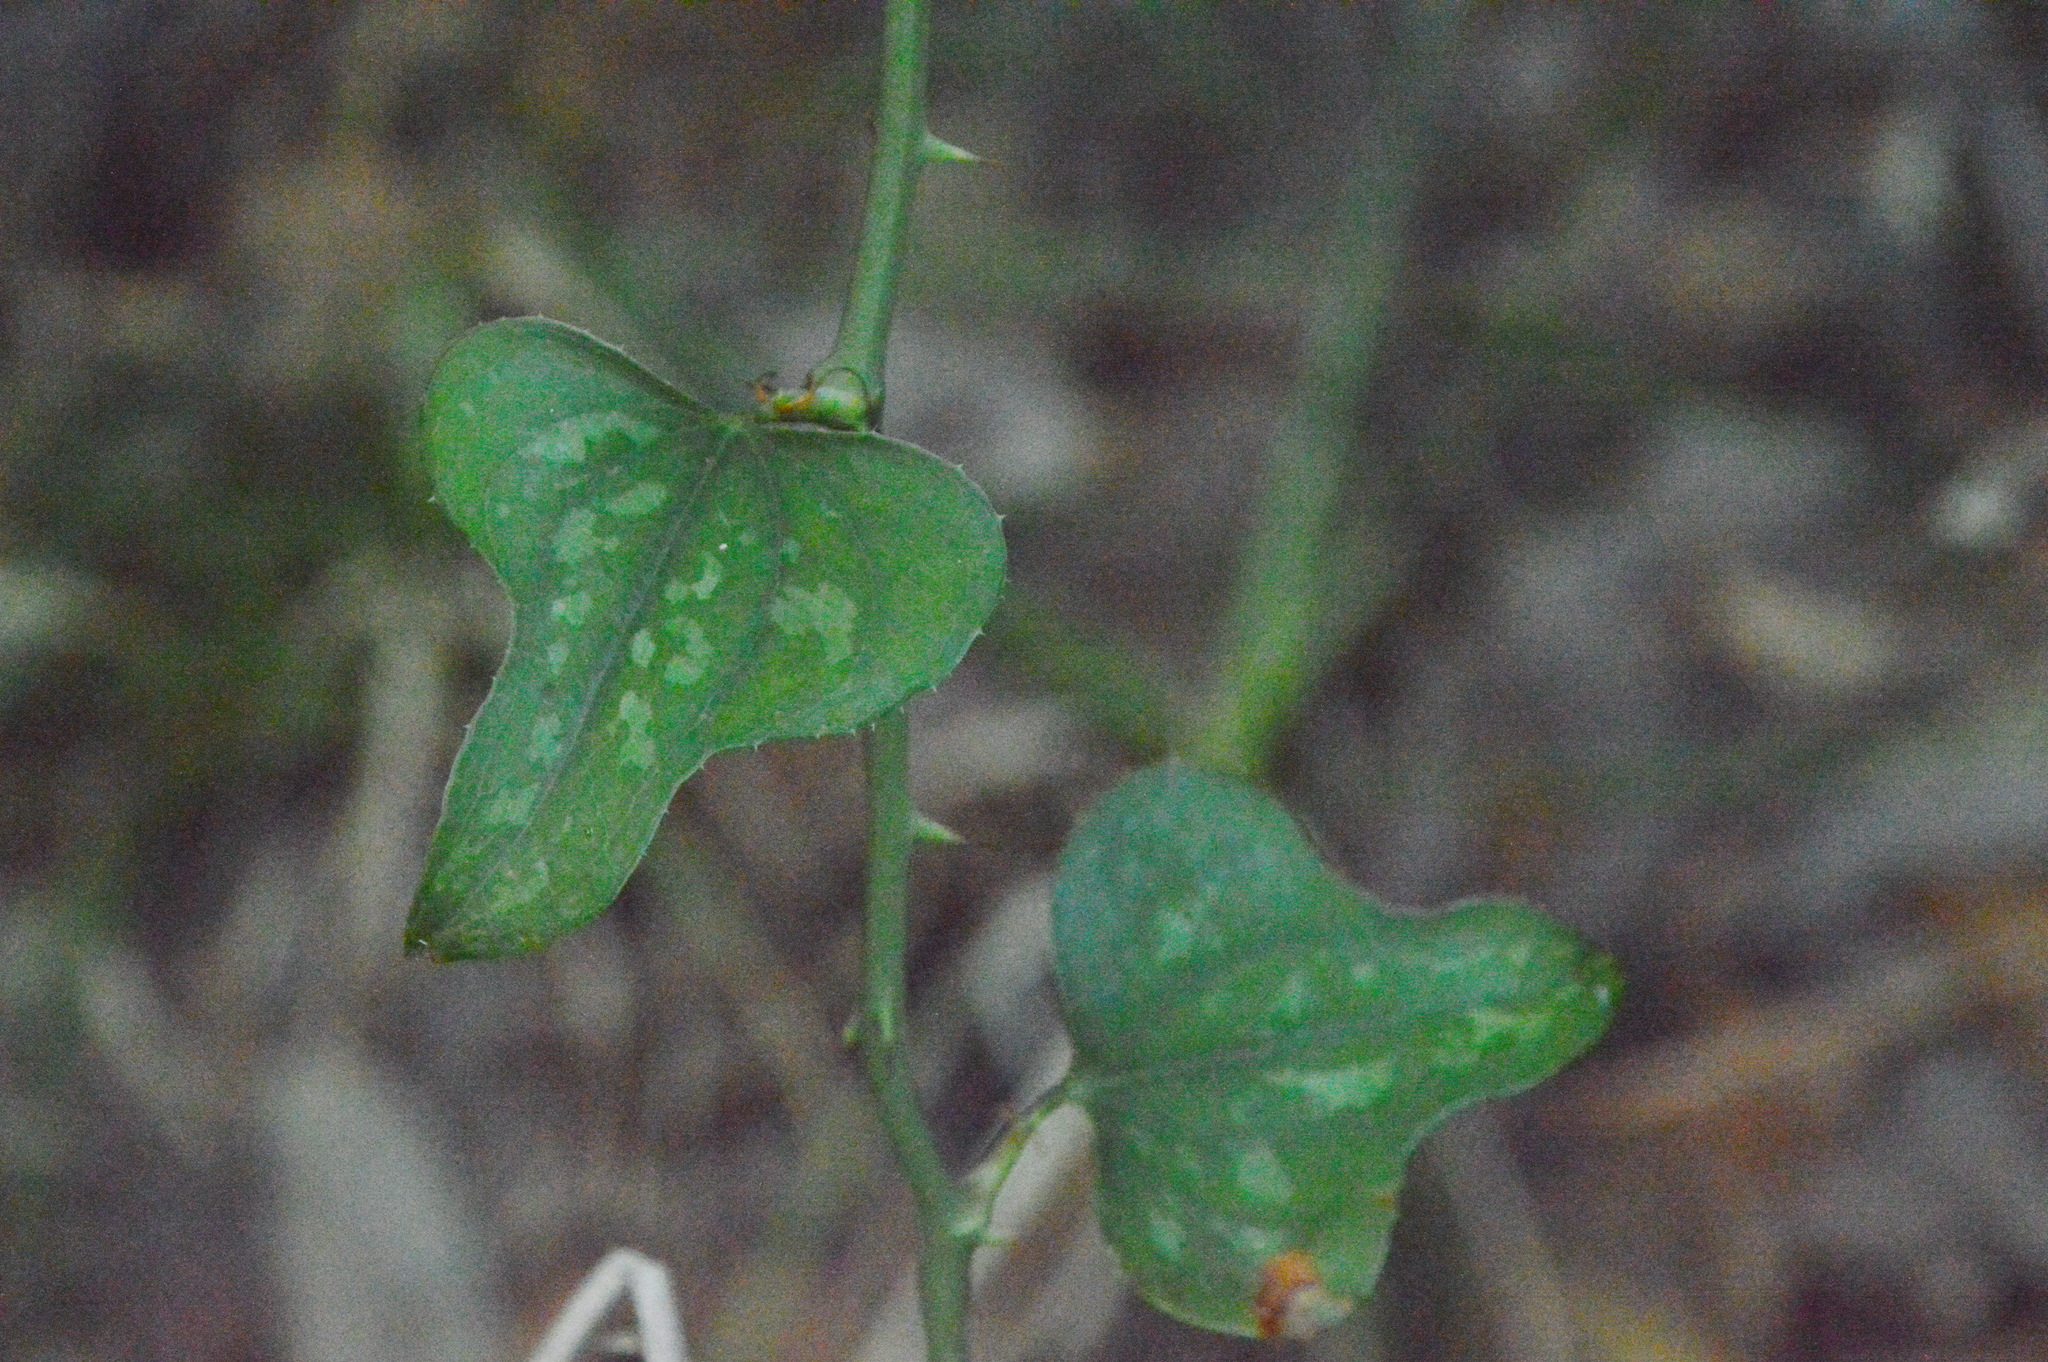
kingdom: Plantae
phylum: Tracheophyta
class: Liliopsida
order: Liliales
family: Smilacaceae
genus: Smilax
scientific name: Smilax bona-nox
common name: Catbrier
